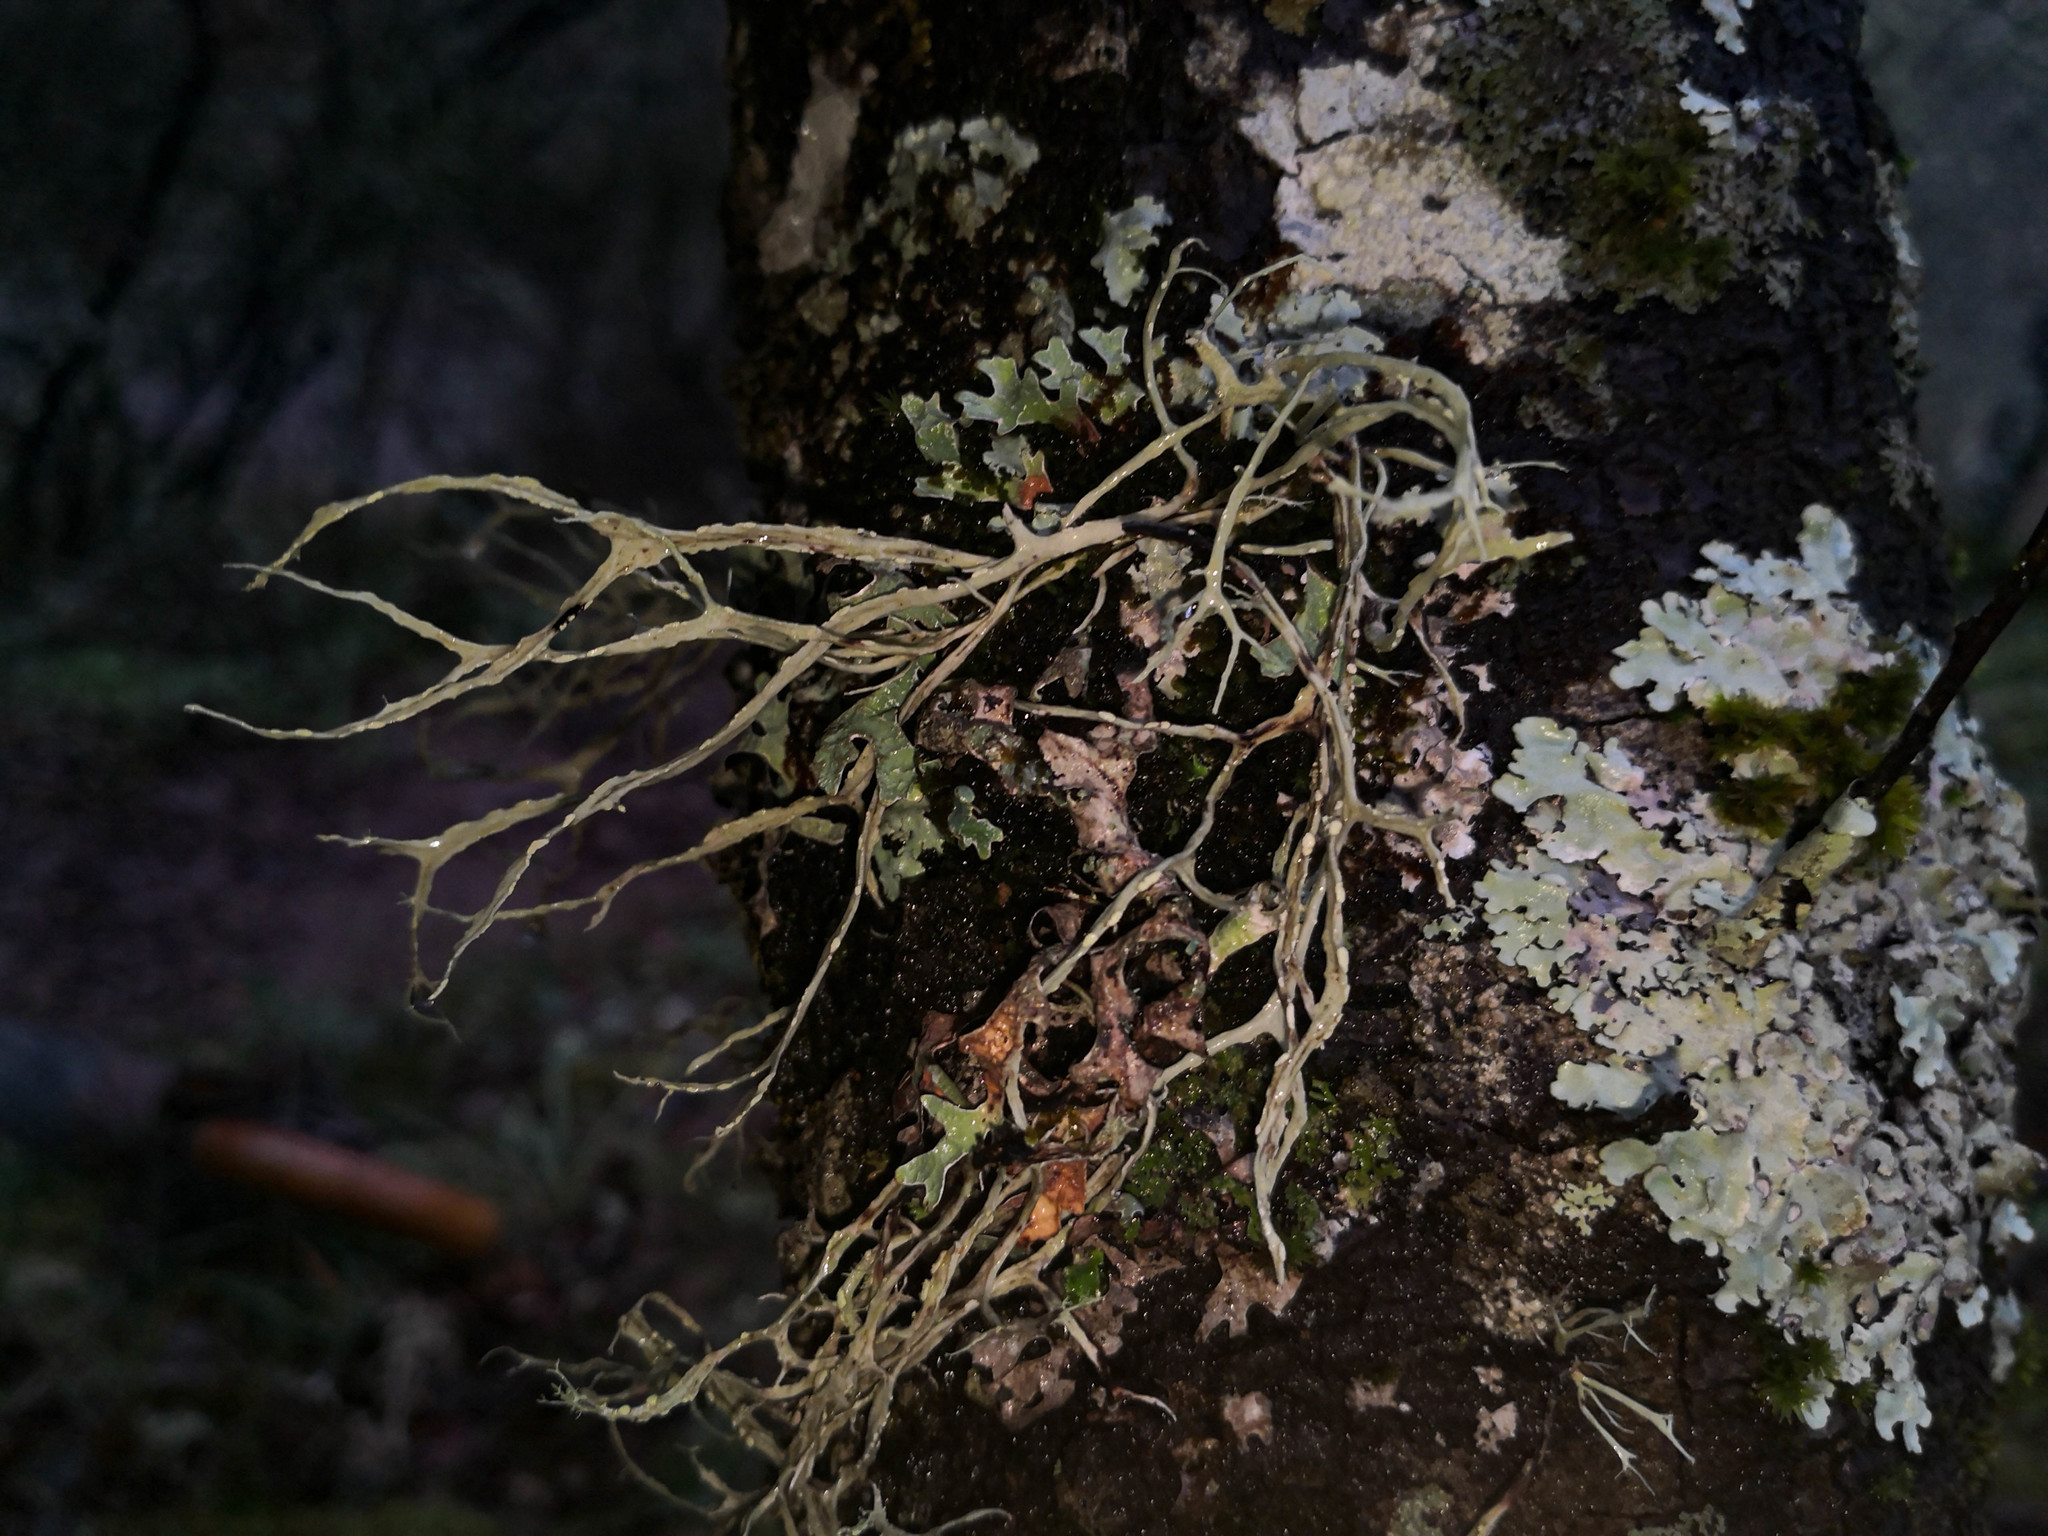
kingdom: Fungi
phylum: Ascomycota
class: Lecanoromycetes
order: Lecanorales
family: Ramalinaceae
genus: Ramalina
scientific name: Ramalina farinacea
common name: Farinose cartilage lichen
